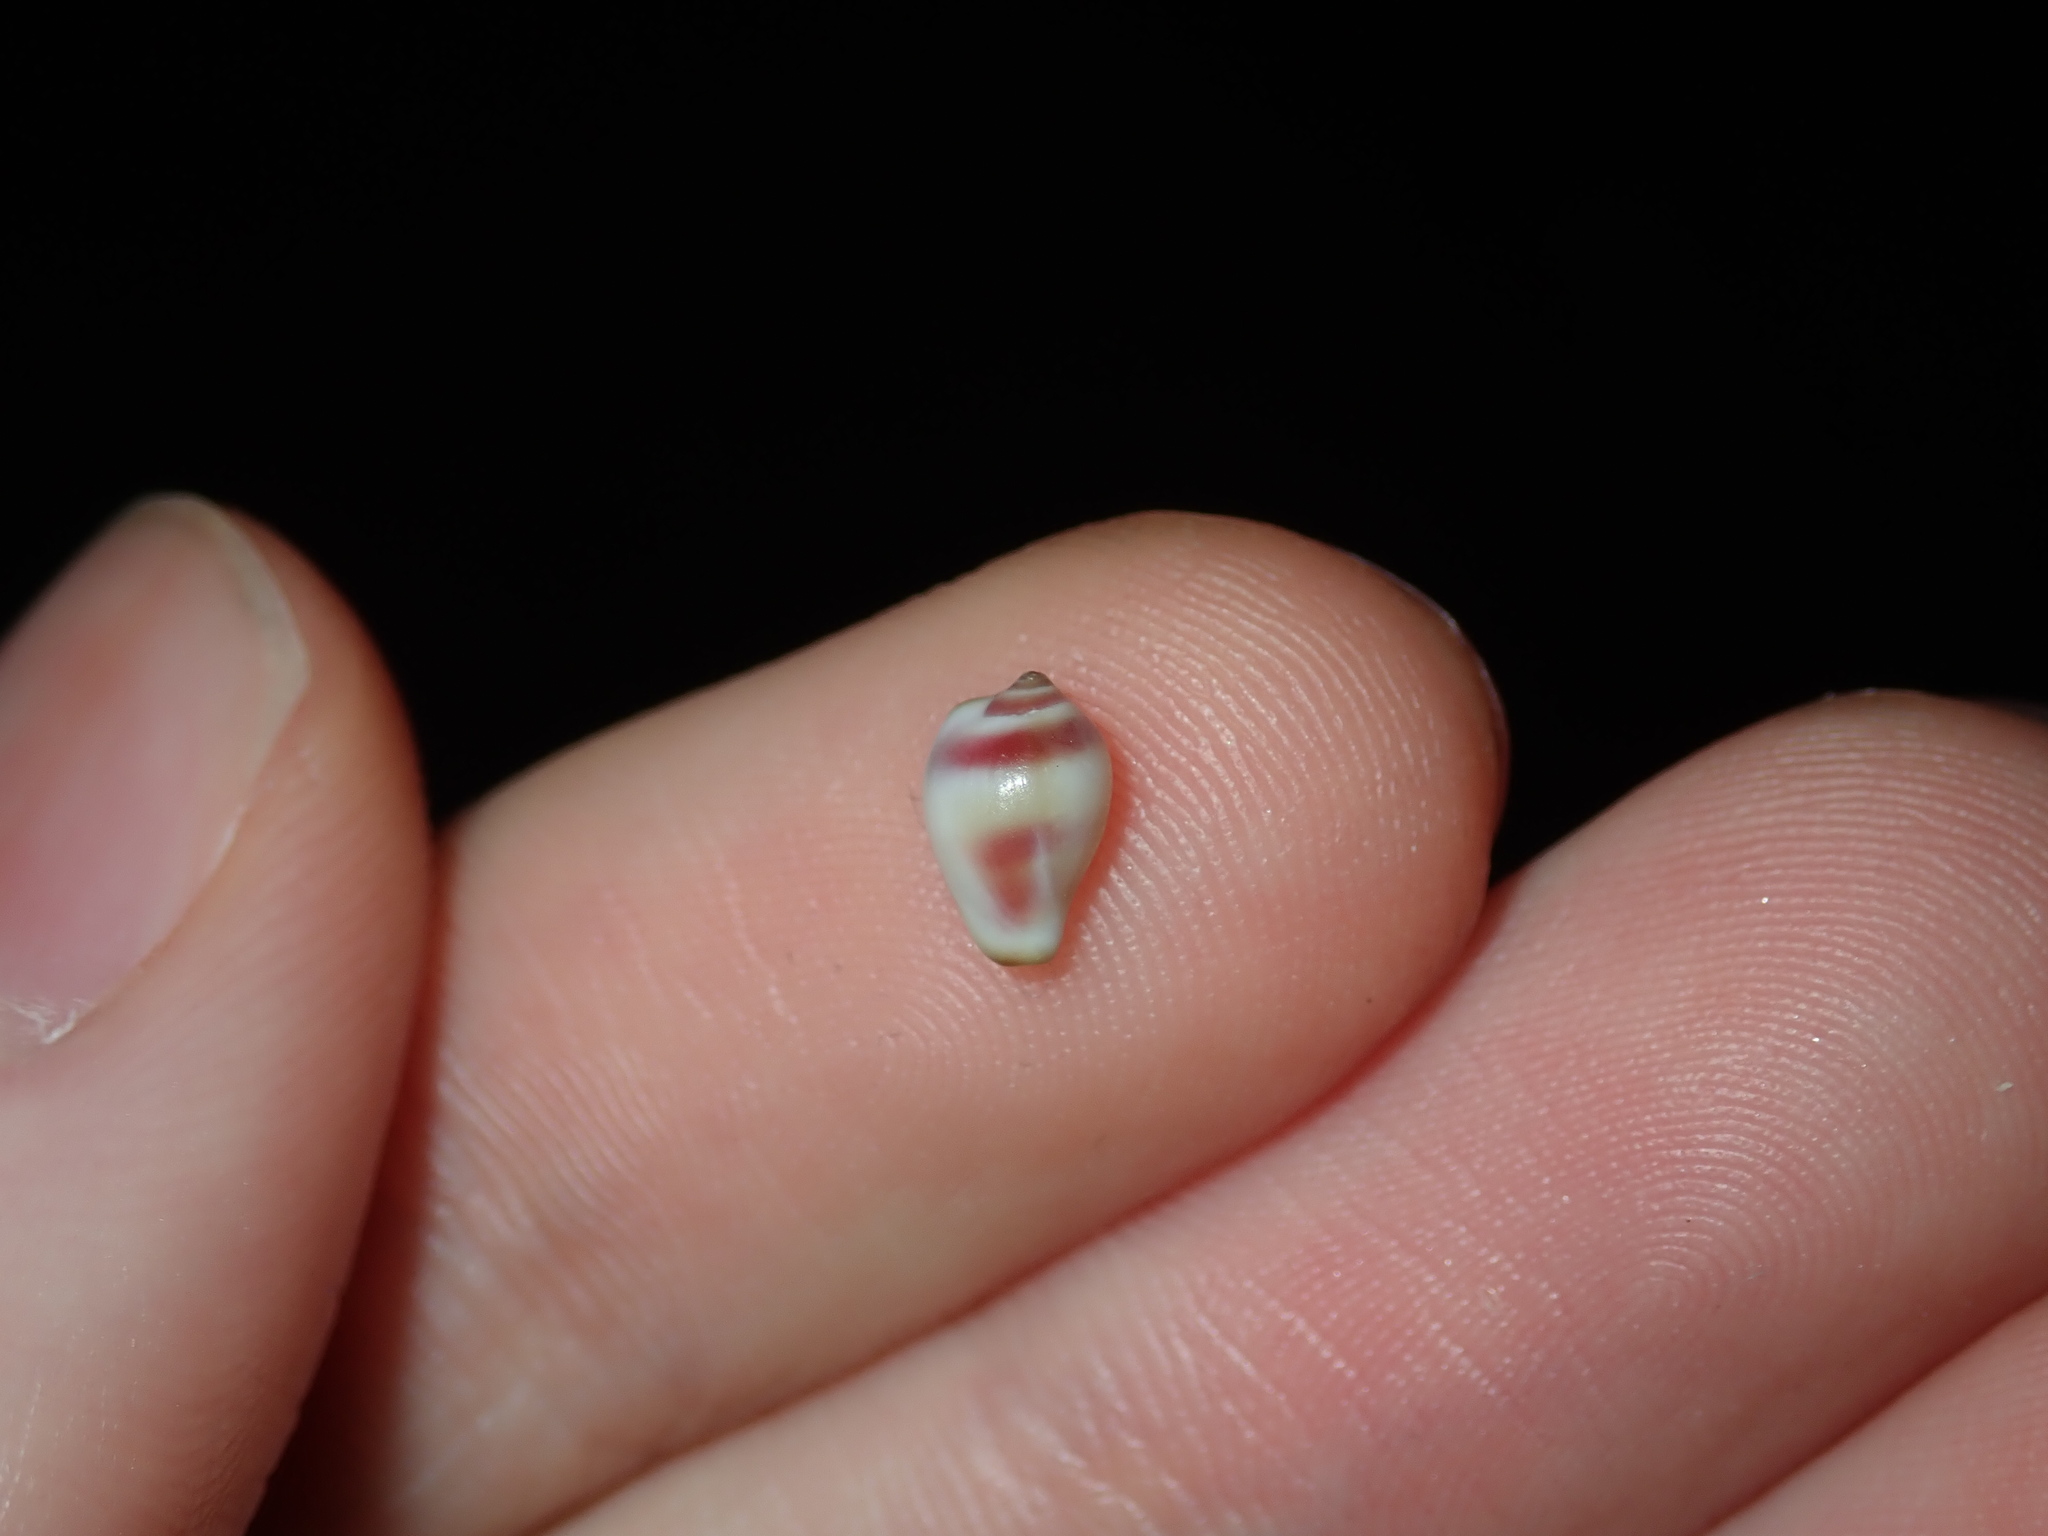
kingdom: Animalia
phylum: Mollusca
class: Gastropoda
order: Littorinimorpha
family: Eratoidae
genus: Lachryma
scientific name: Lachryma lachryma
